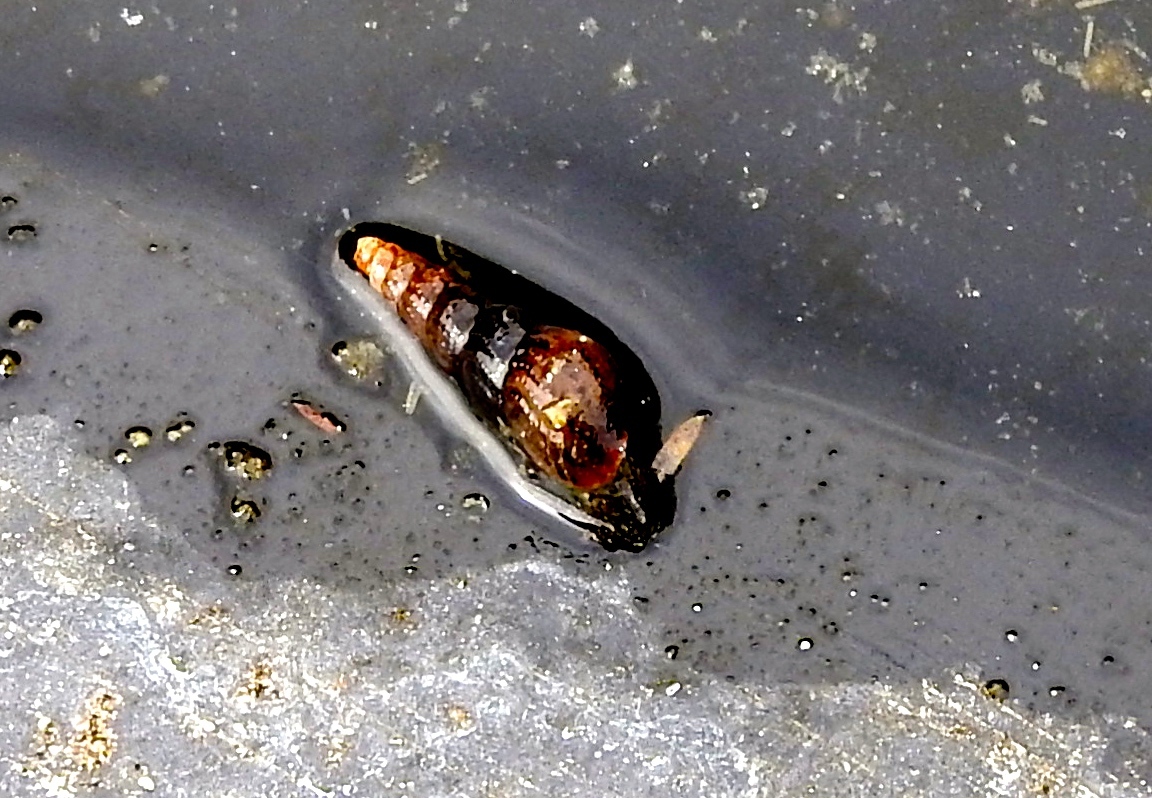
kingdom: Animalia
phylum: Mollusca
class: Gastropoda
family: Thiaridae
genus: Melanoides
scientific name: Melanoides tuberculata
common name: Red-rim melania
